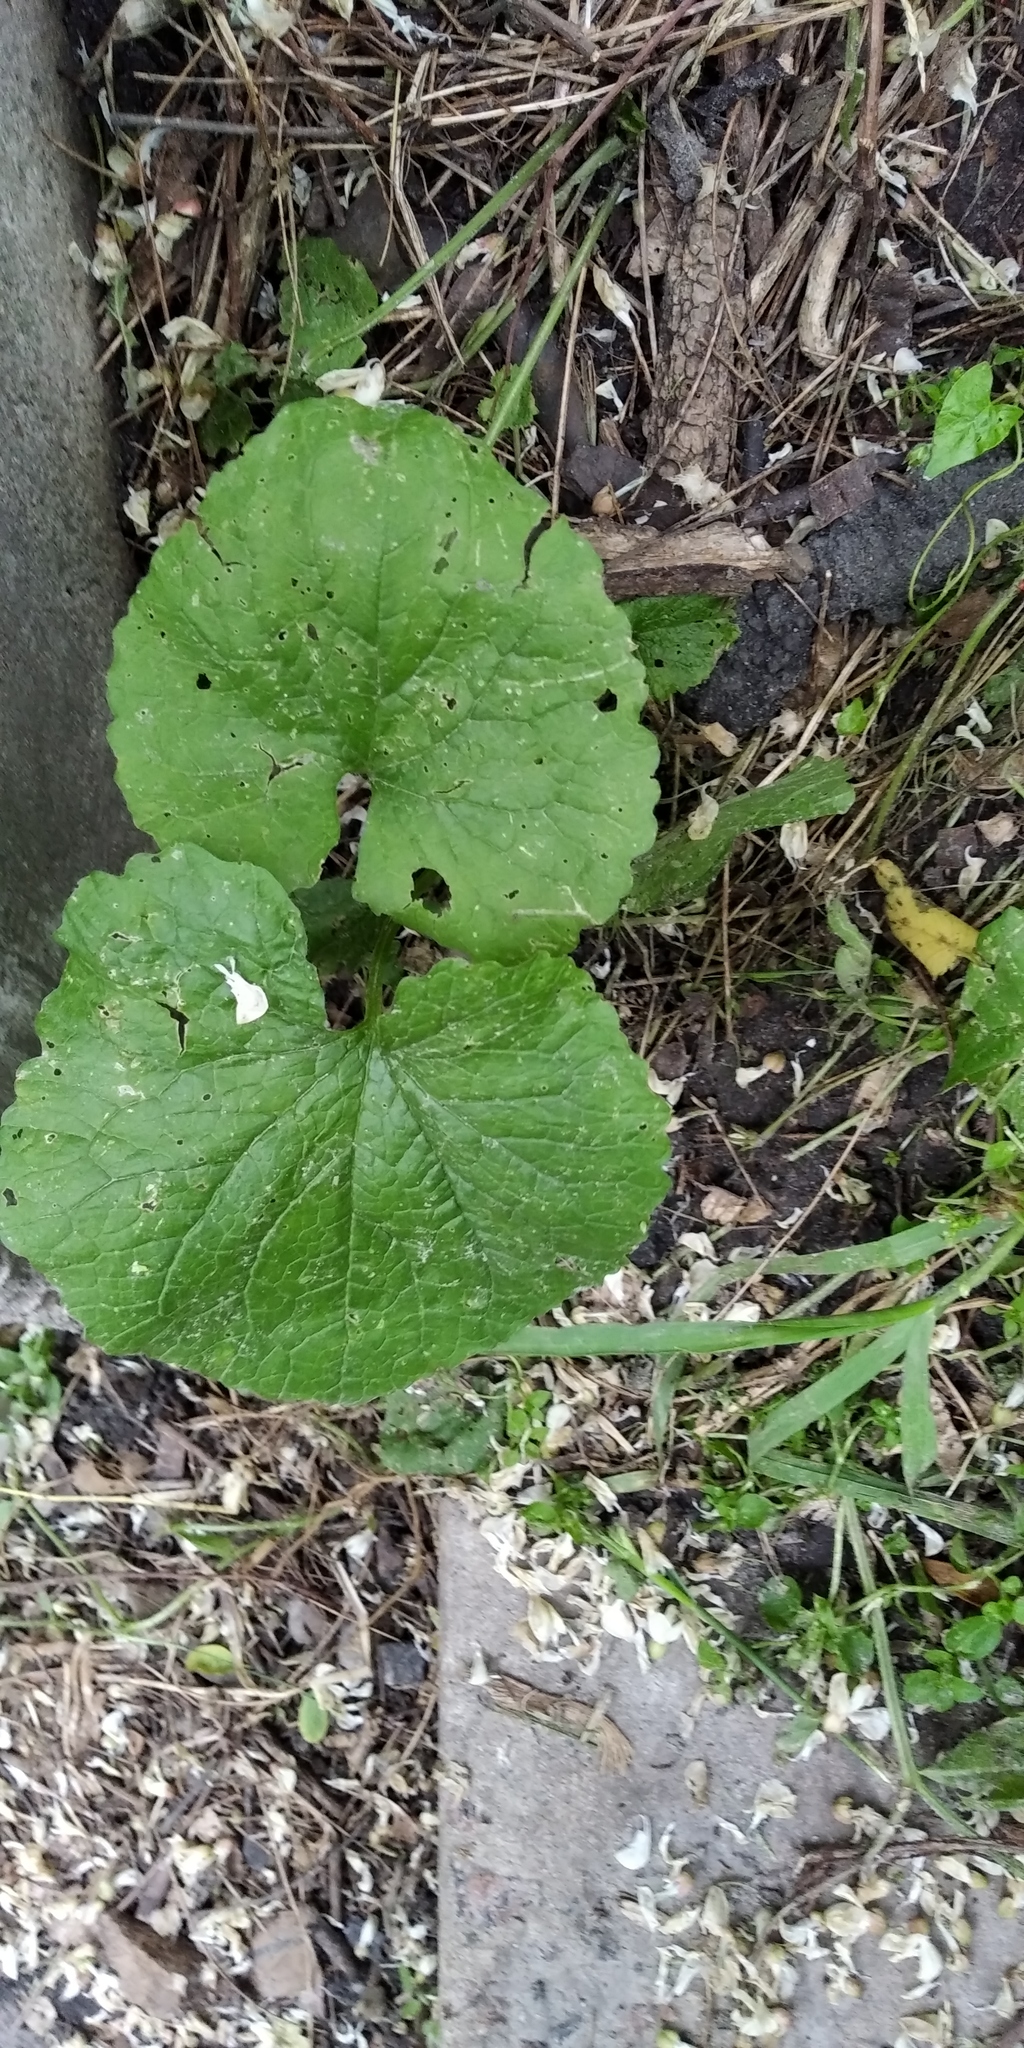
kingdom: Plantae
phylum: Tracheophyta
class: Magnoliopsida
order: Brassicales
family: Brassicaceae
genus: Alliaria
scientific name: Alliaria petiolata
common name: Garlic mustard
